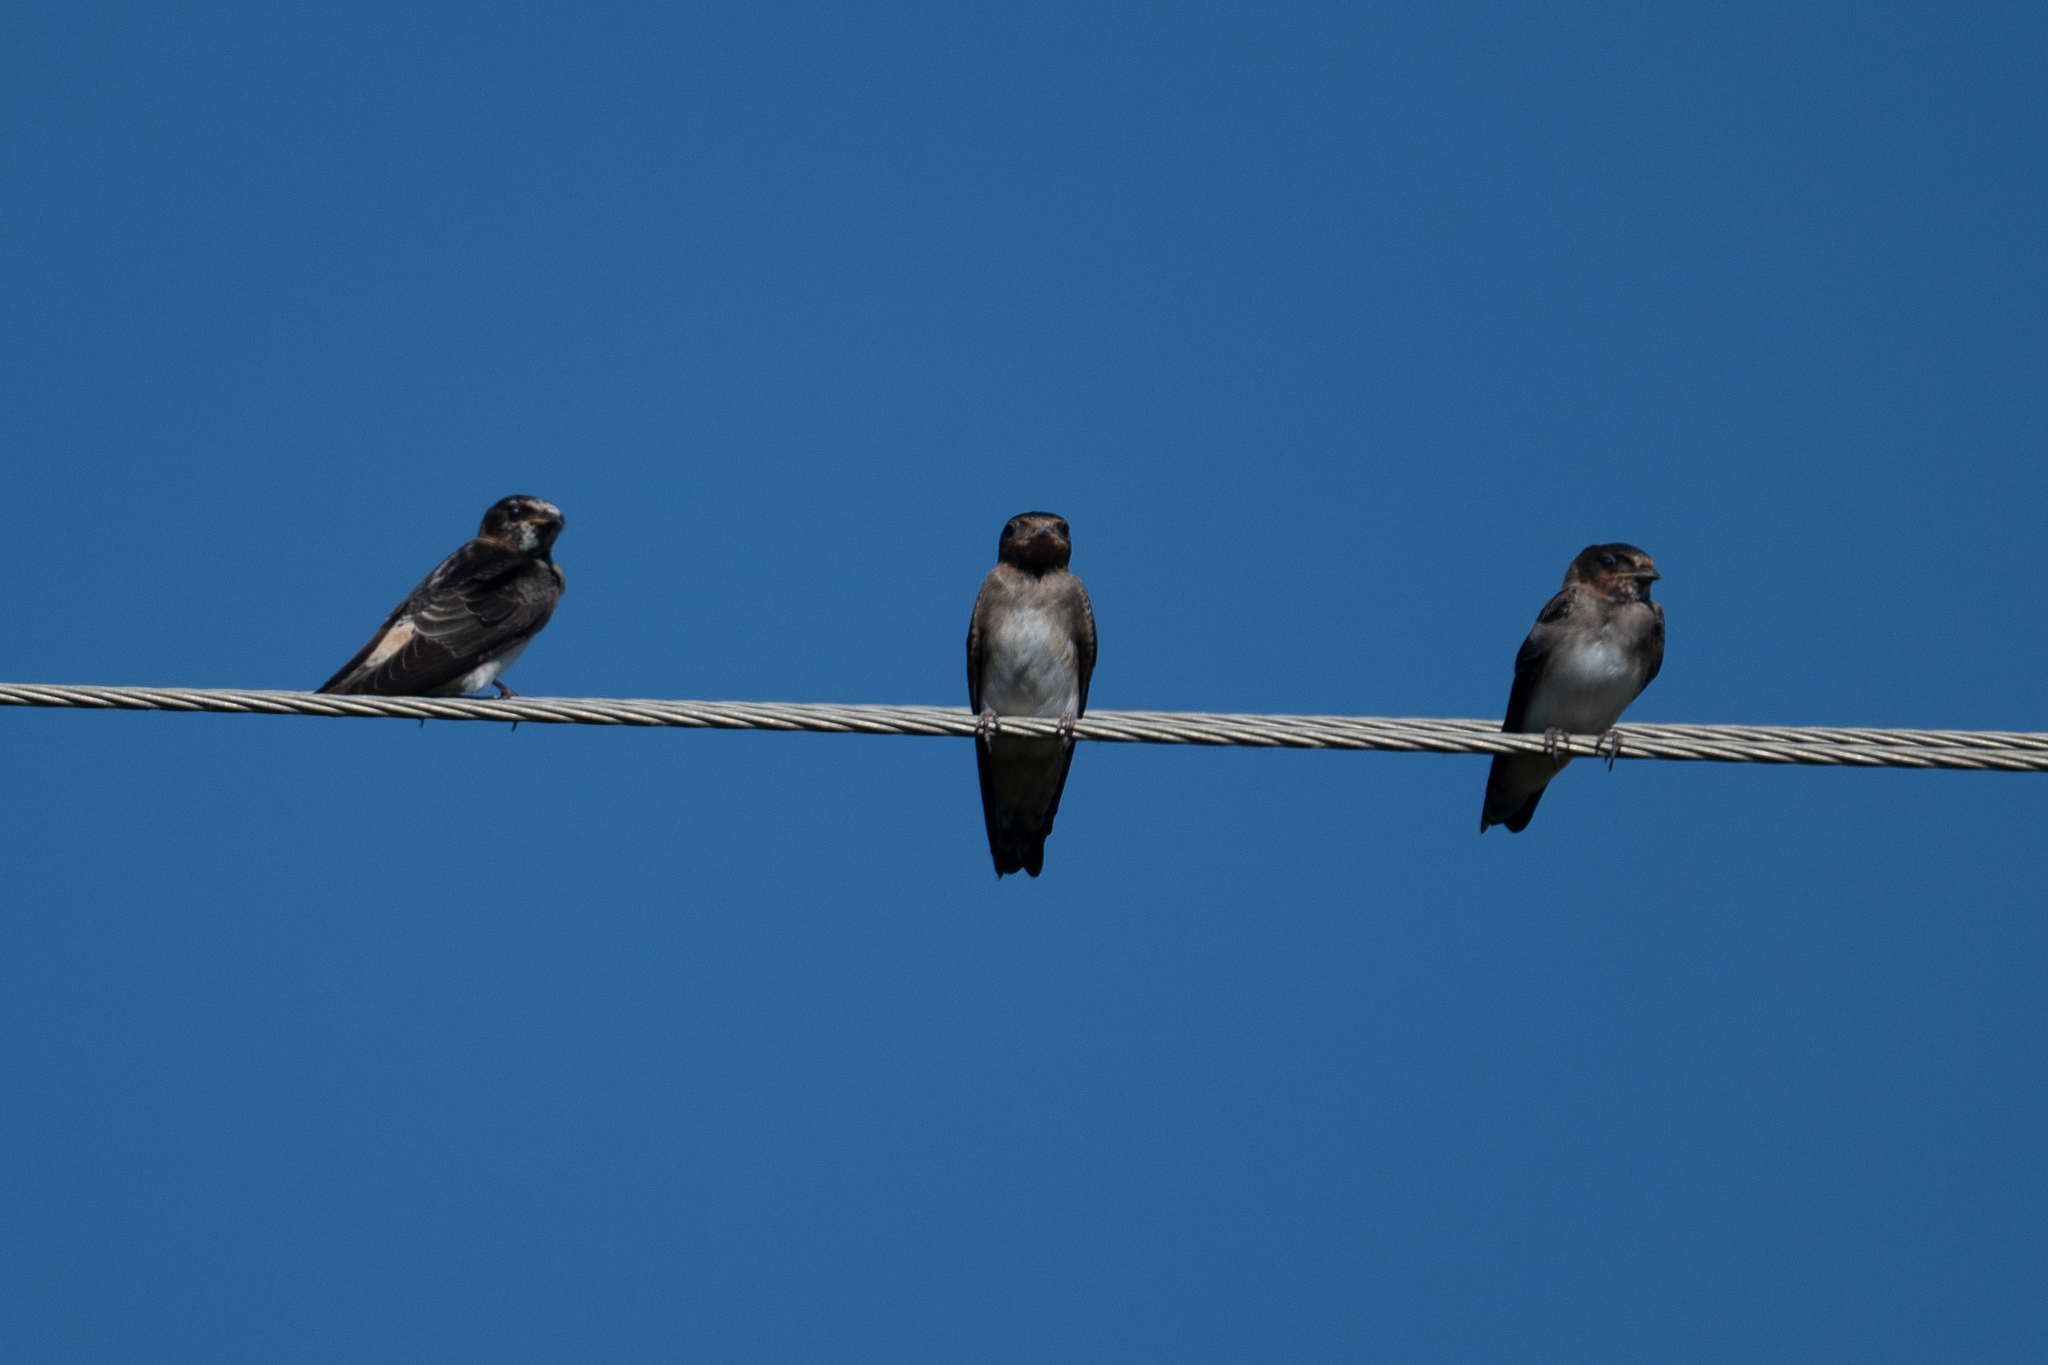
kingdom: Animalia
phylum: Chordata
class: Aves
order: Passeriformes
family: Hirundinidae
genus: Petrochelidon
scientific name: Petrochelidon pyrrhonota
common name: American cliff swallow
